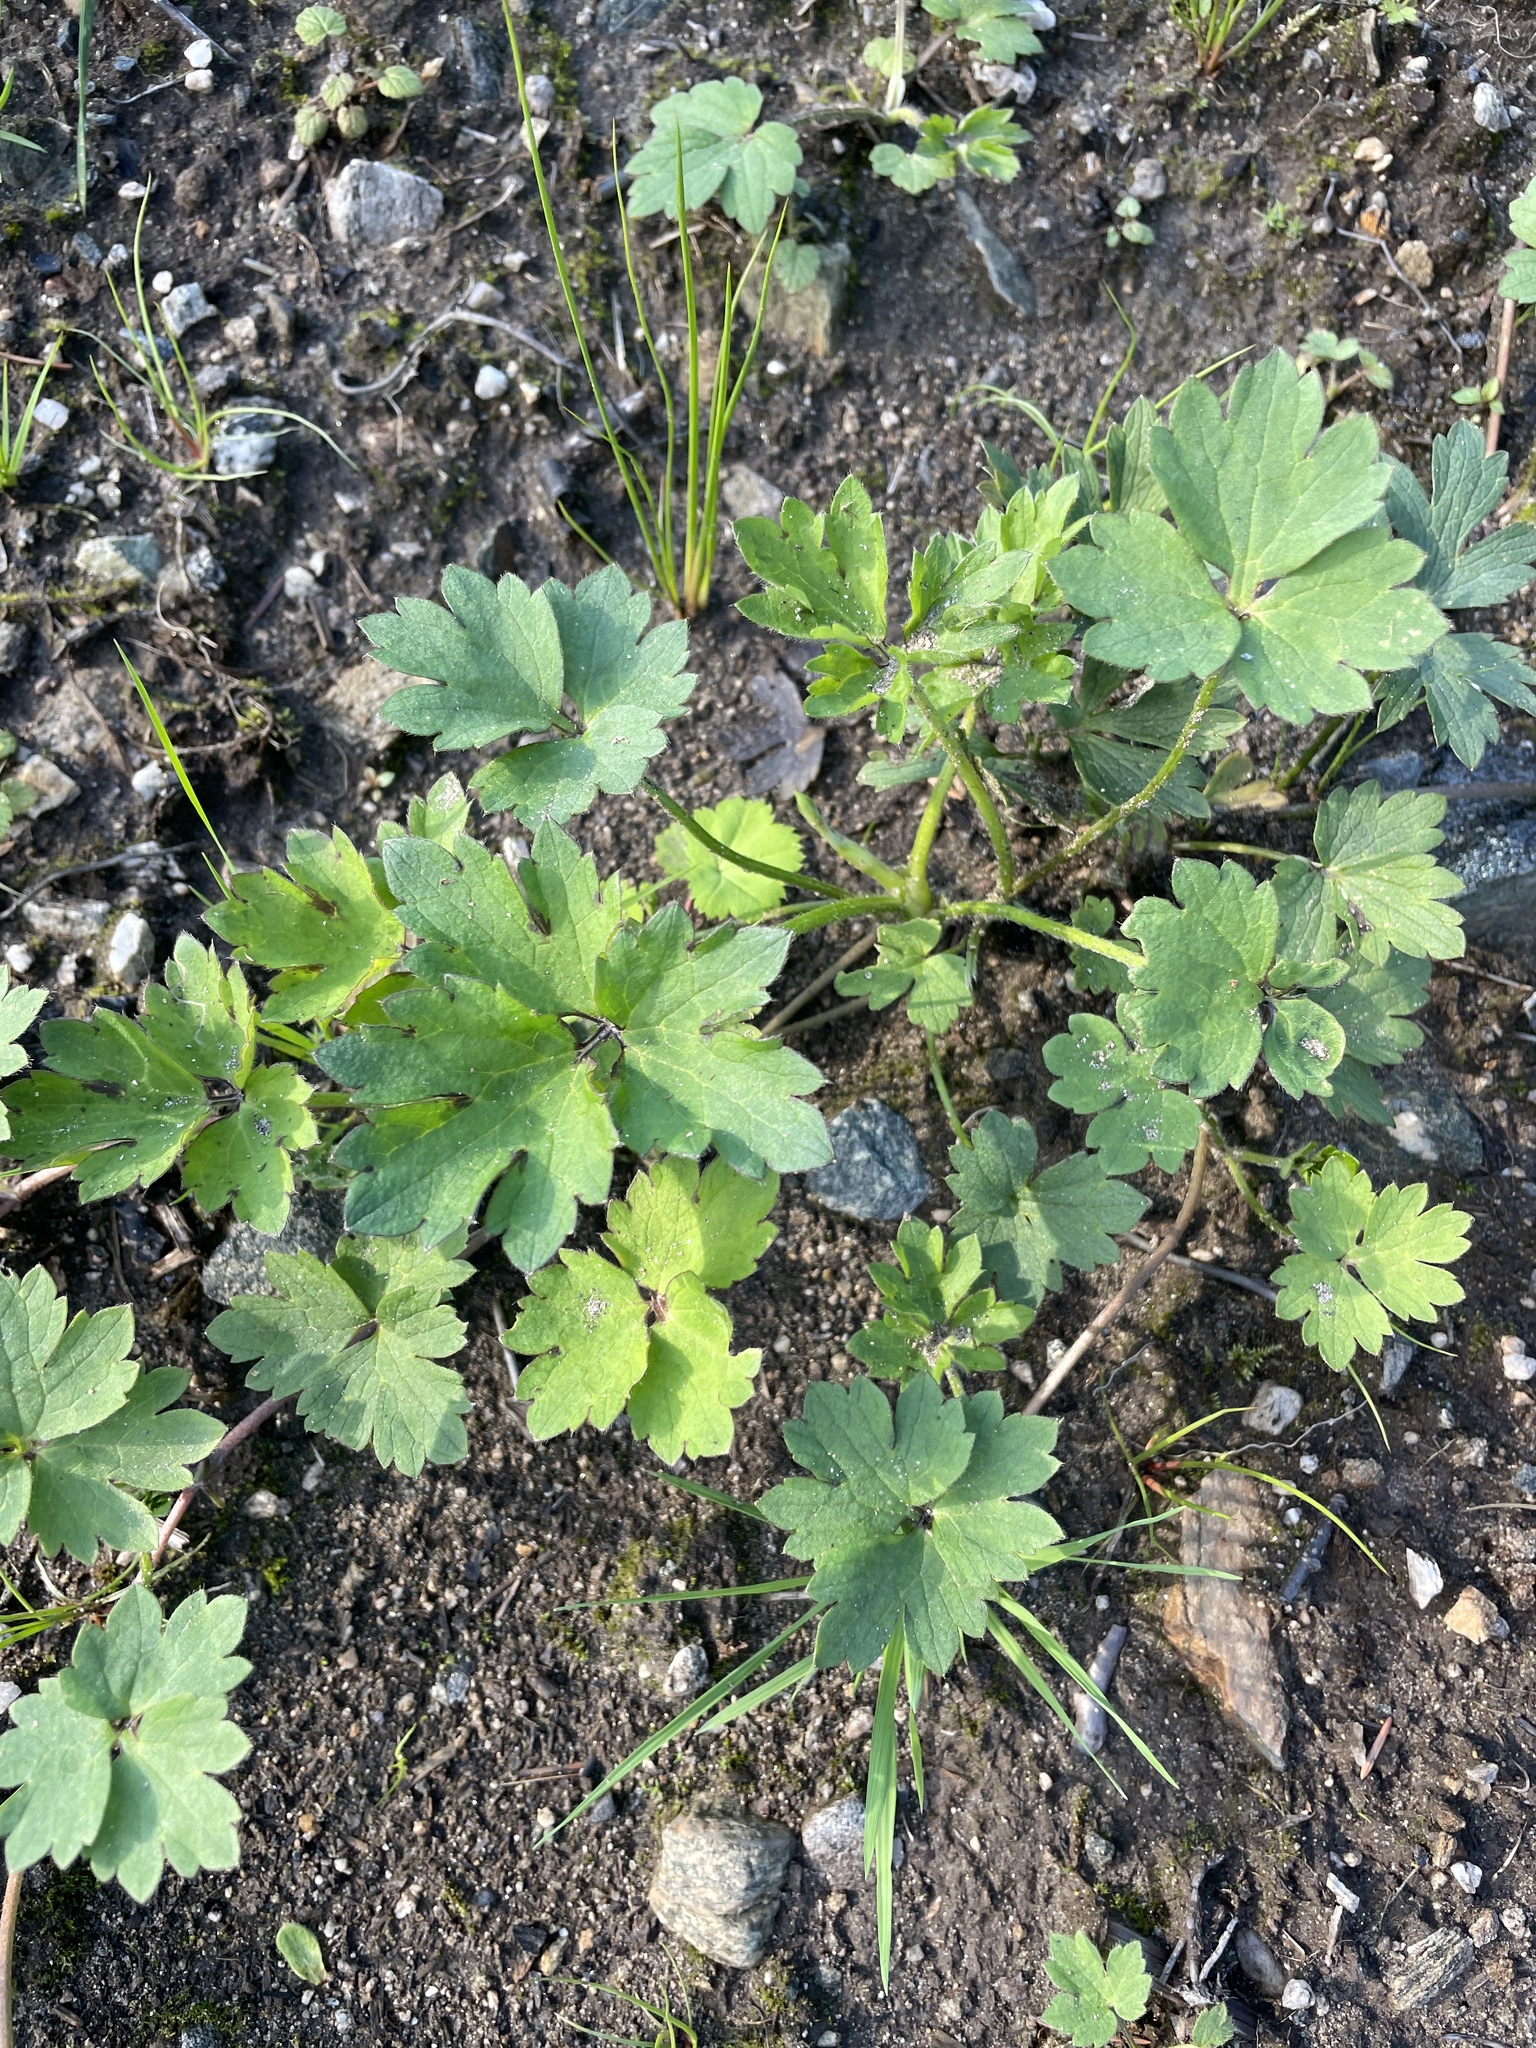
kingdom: Plantae
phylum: Tracheophyta
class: Magnoliopsida
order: Ranunculales
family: Ranunculaceae
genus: Ranunculus
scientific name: Ranunculus repens
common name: Creeping buttercup
